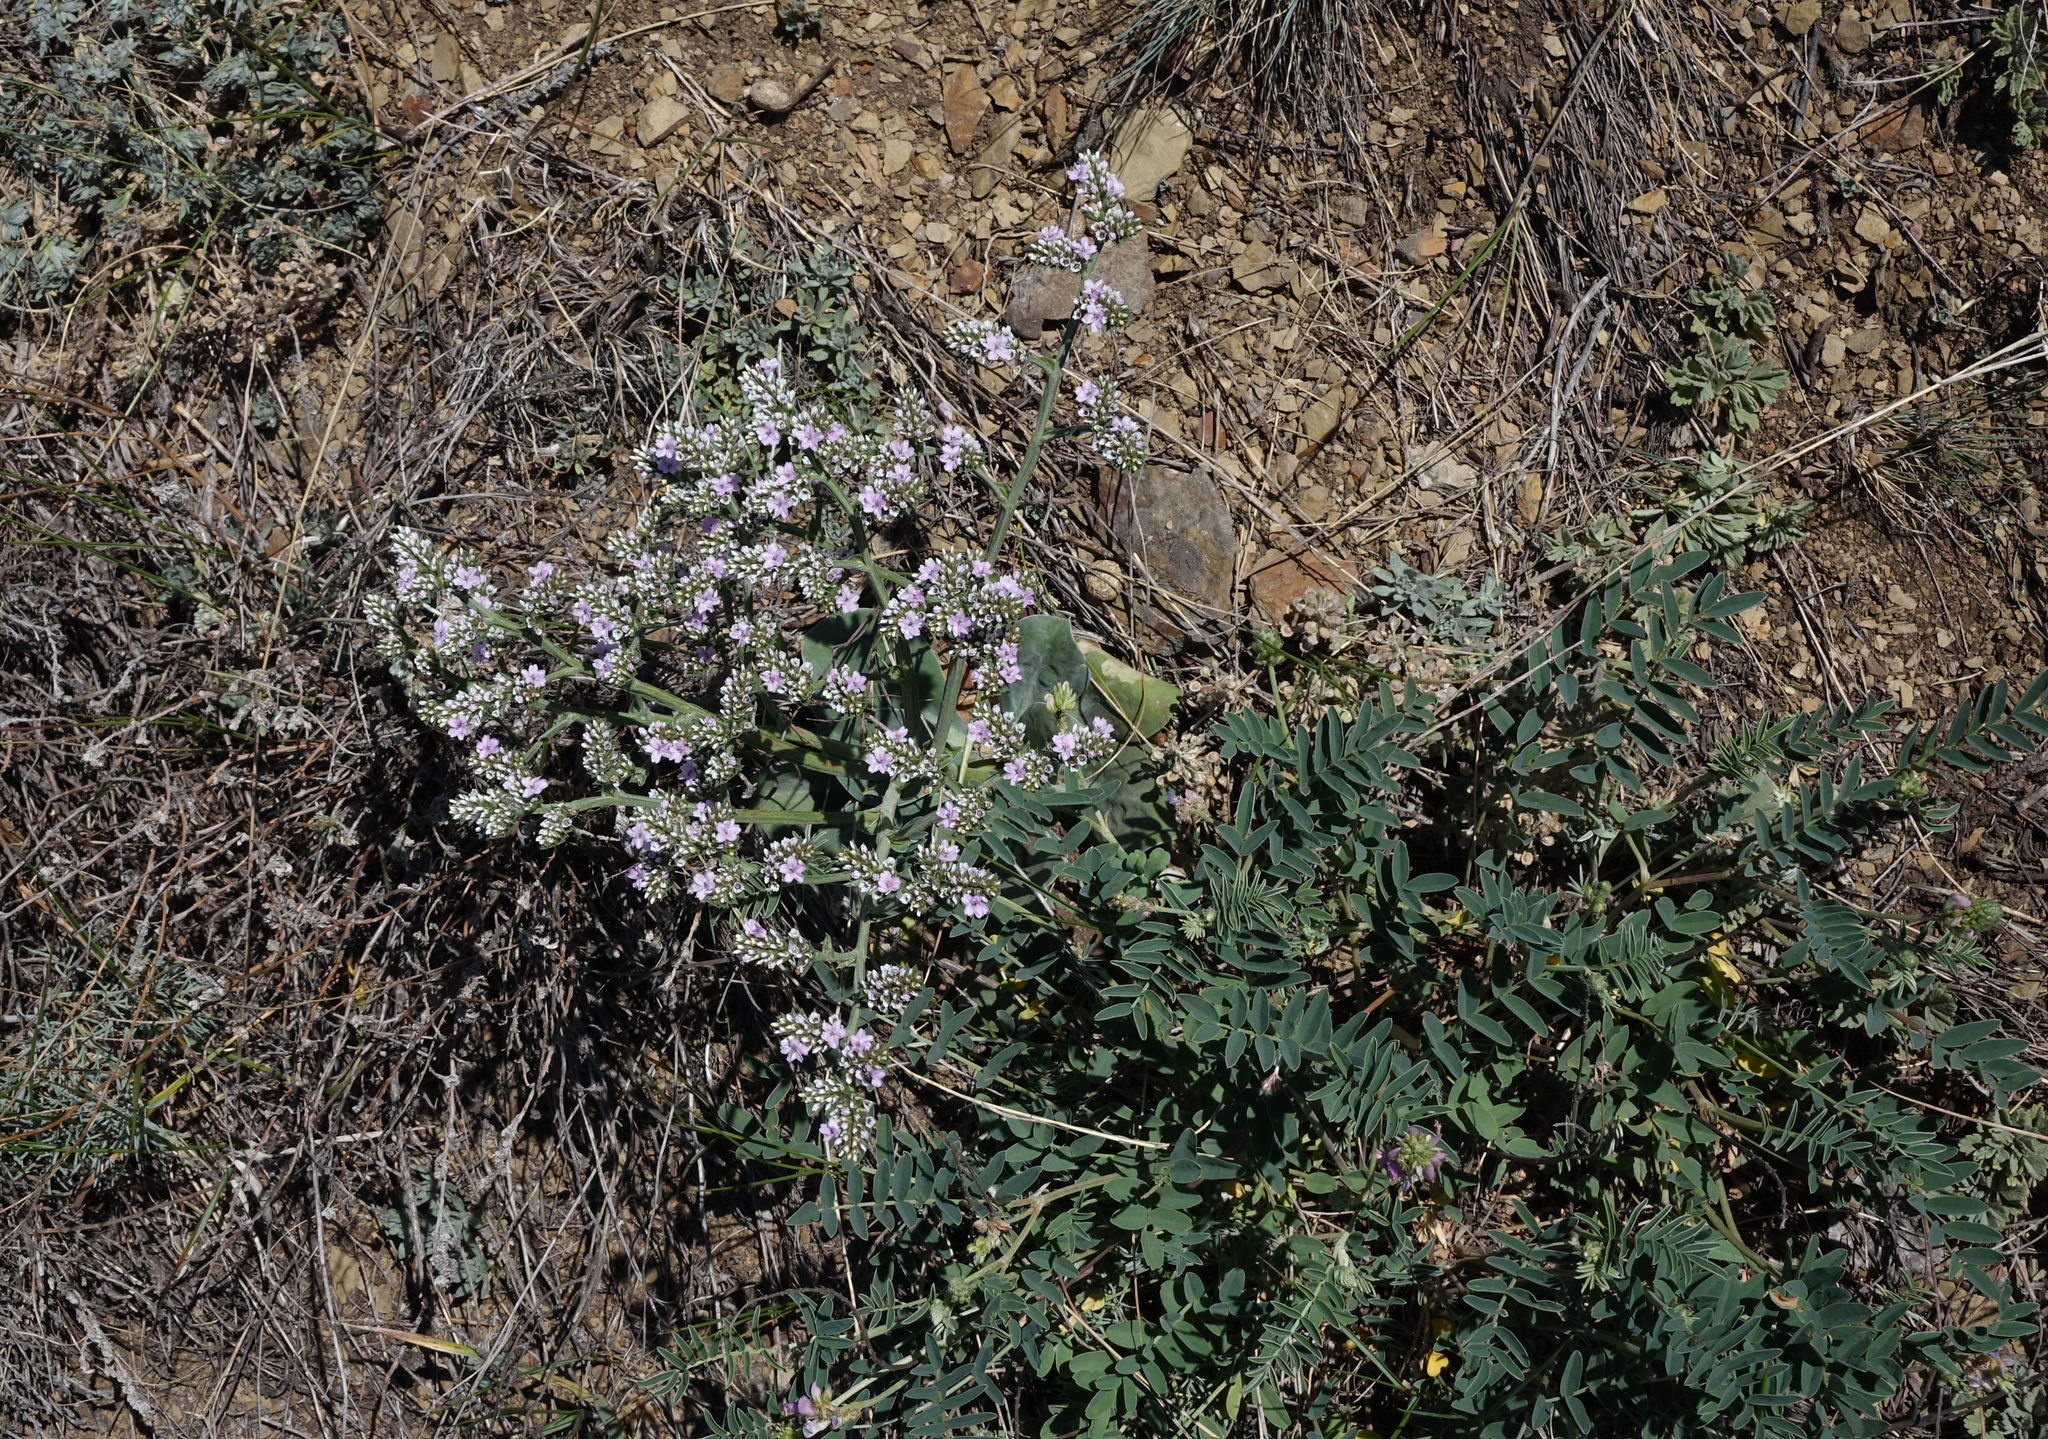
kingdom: Plantae
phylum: Tracheophyta
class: Magnoliopsida
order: Caryophyllales
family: Plumbaginaceae
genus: Goniolimon
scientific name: Goniolimon speciosum
